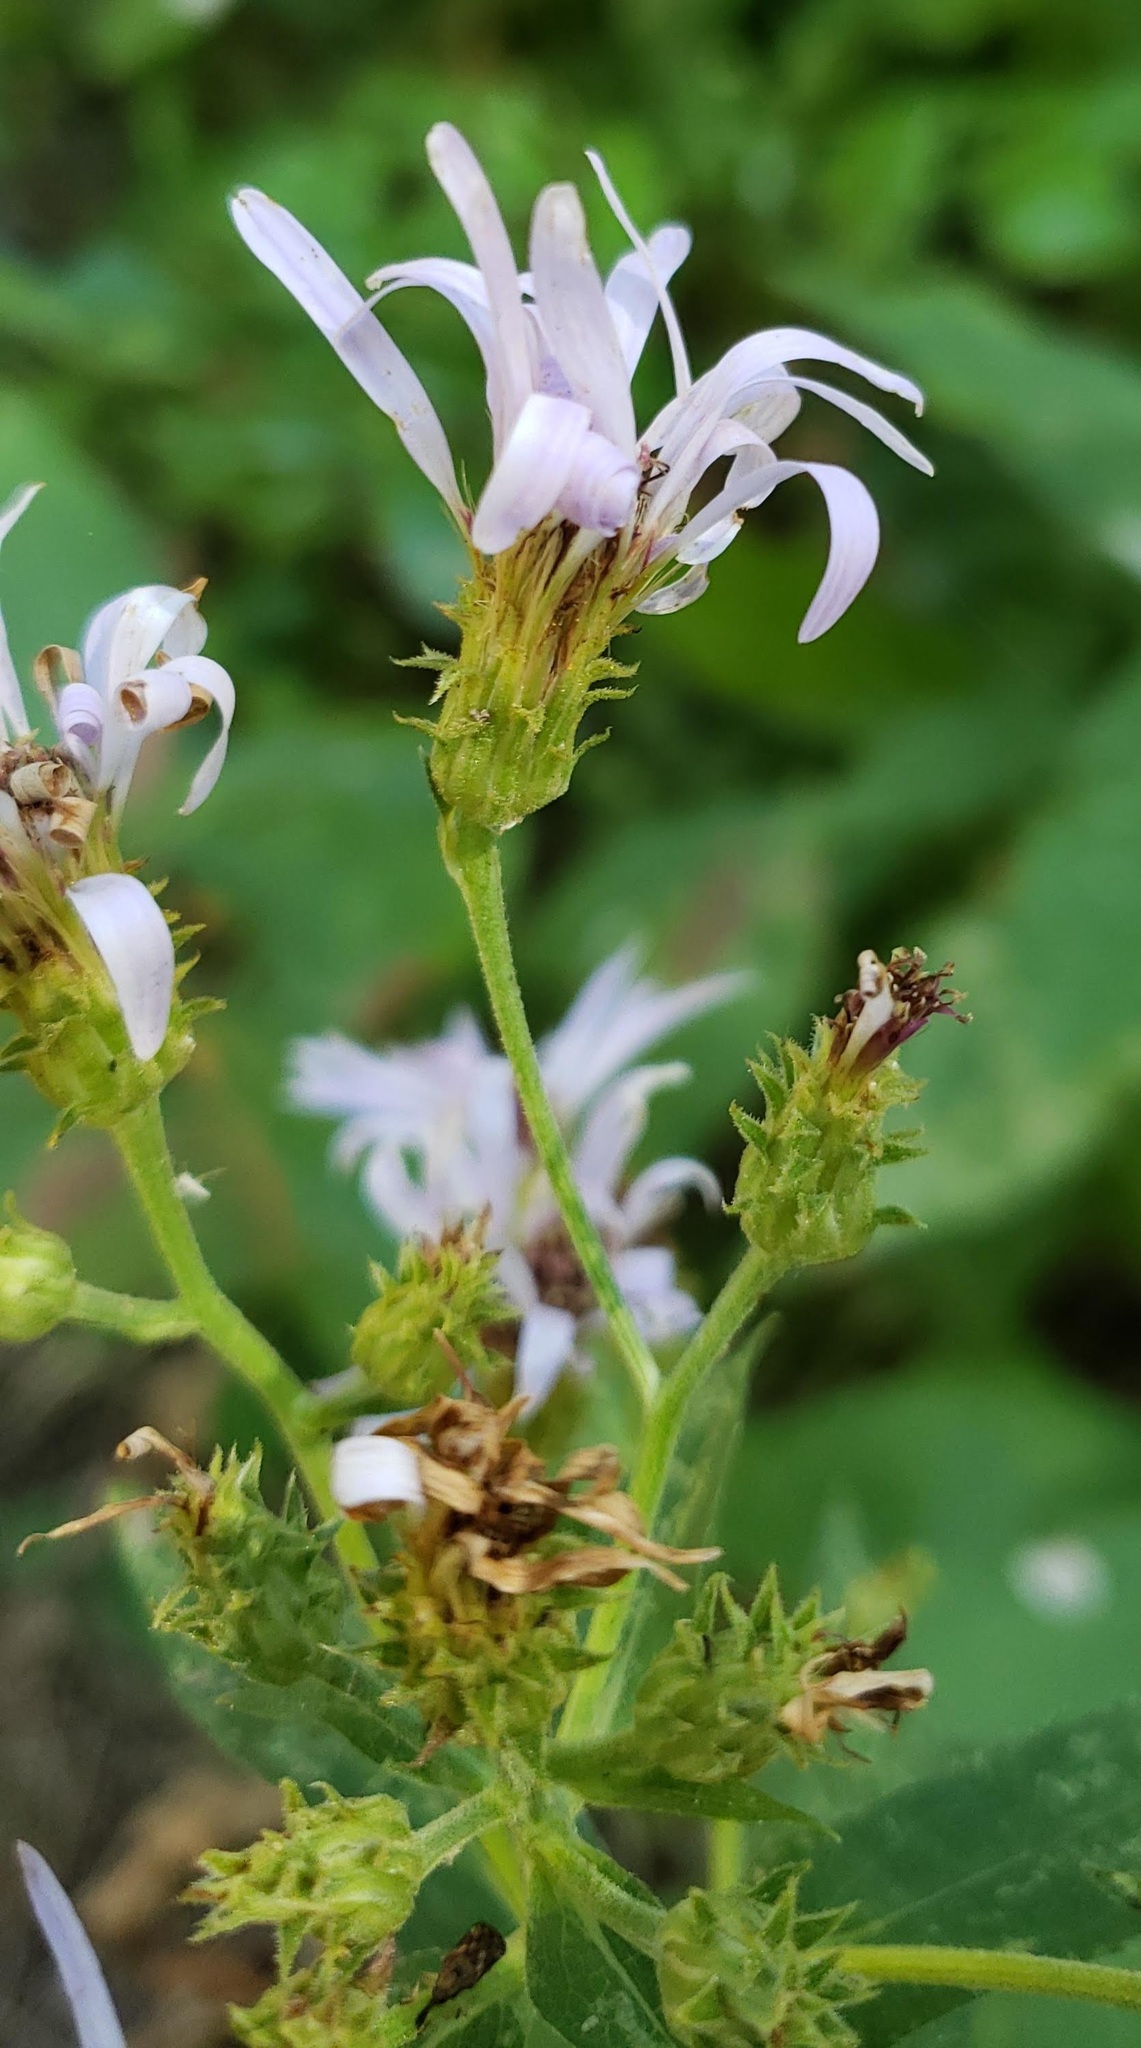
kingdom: Plantae
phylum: Tracheophyta
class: Magnoliopsida
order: Asterales
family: Asteraceae
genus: Eurybia
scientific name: Eurybia conspicua
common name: Showy aster
